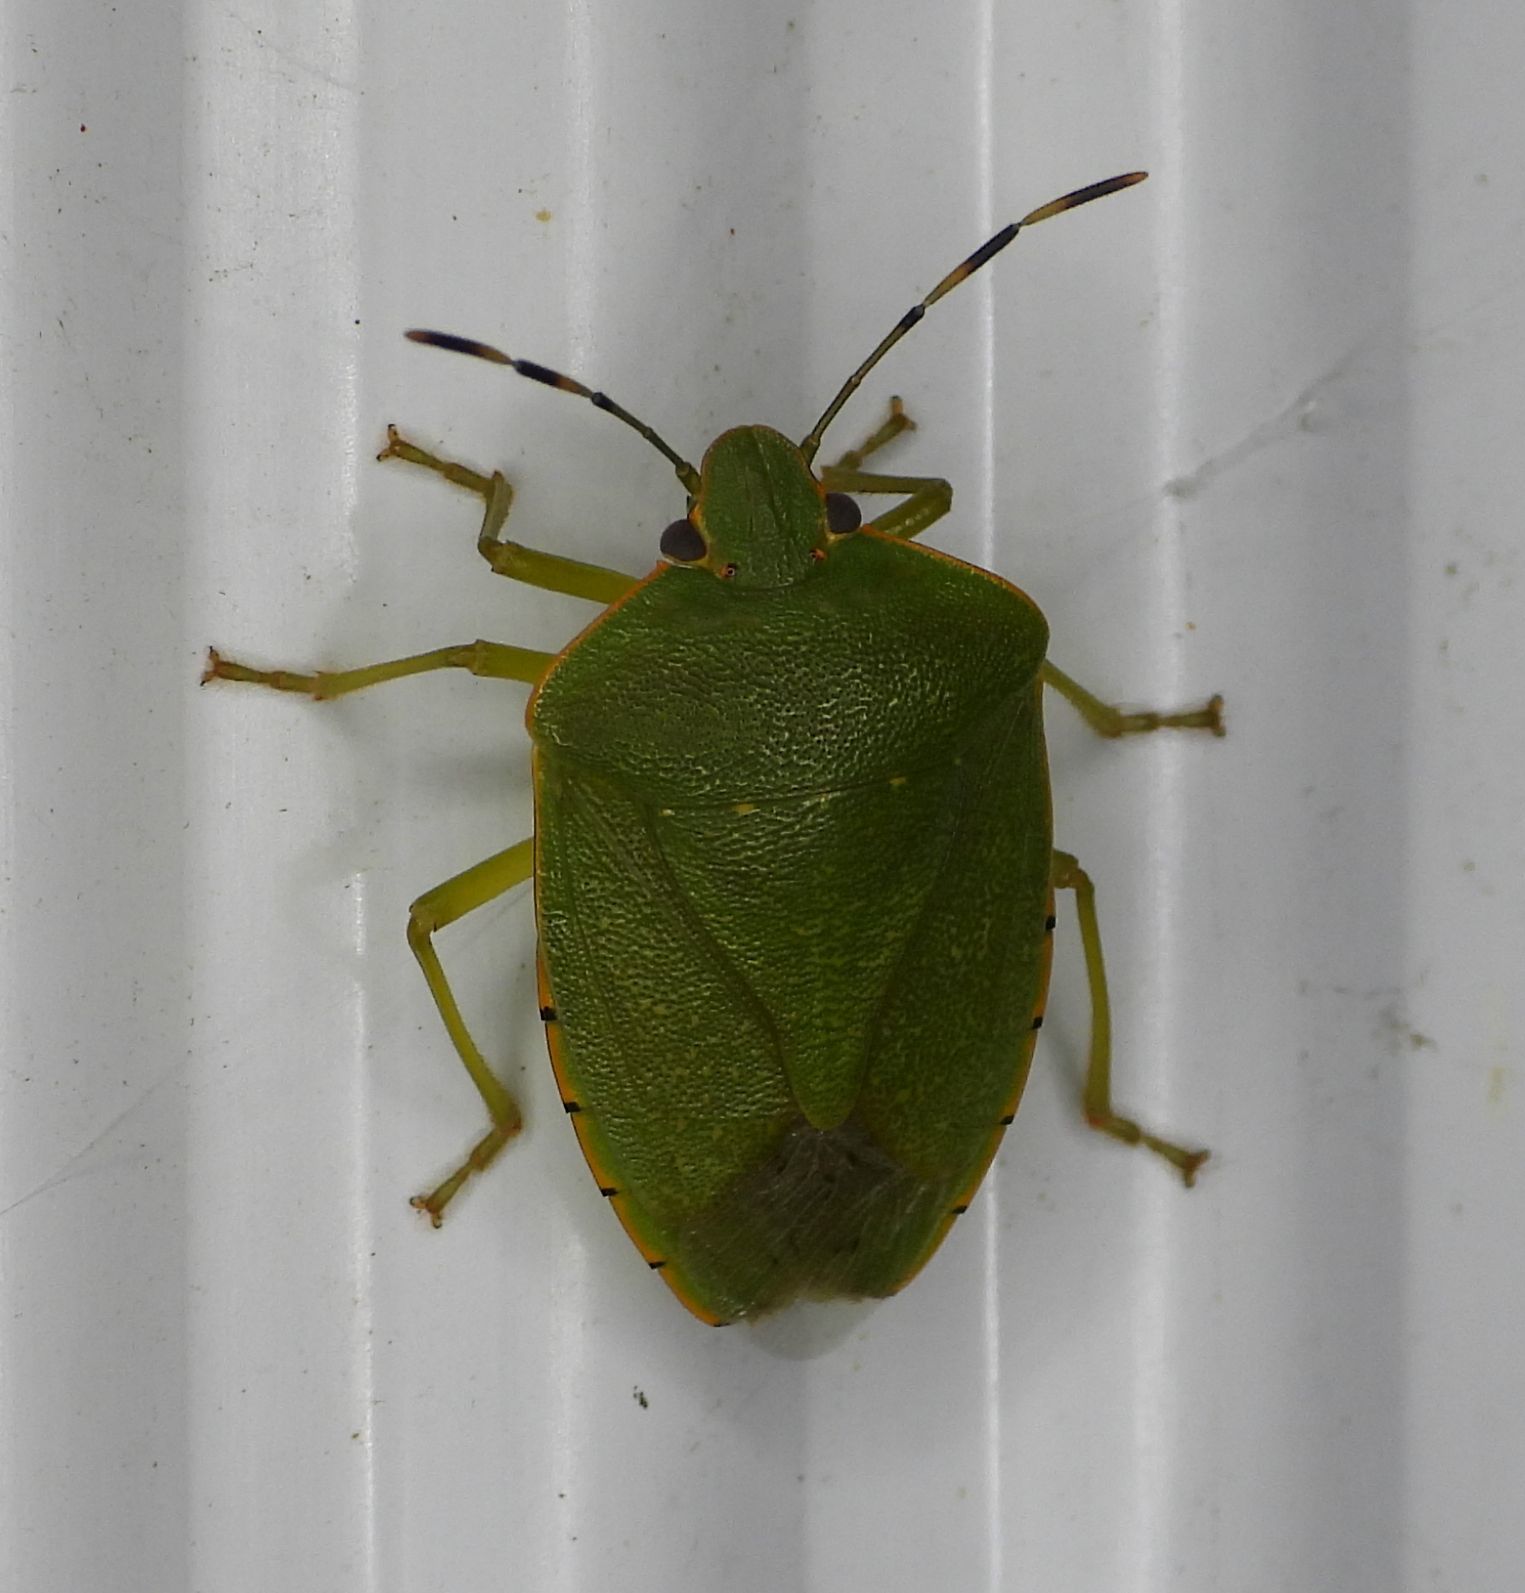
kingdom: Animalia
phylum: Arthropoda
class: Insecta
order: Hemiptera
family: Pentatomidae
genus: Chinavia
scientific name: Chinavia hilaris
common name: Green stink bug
